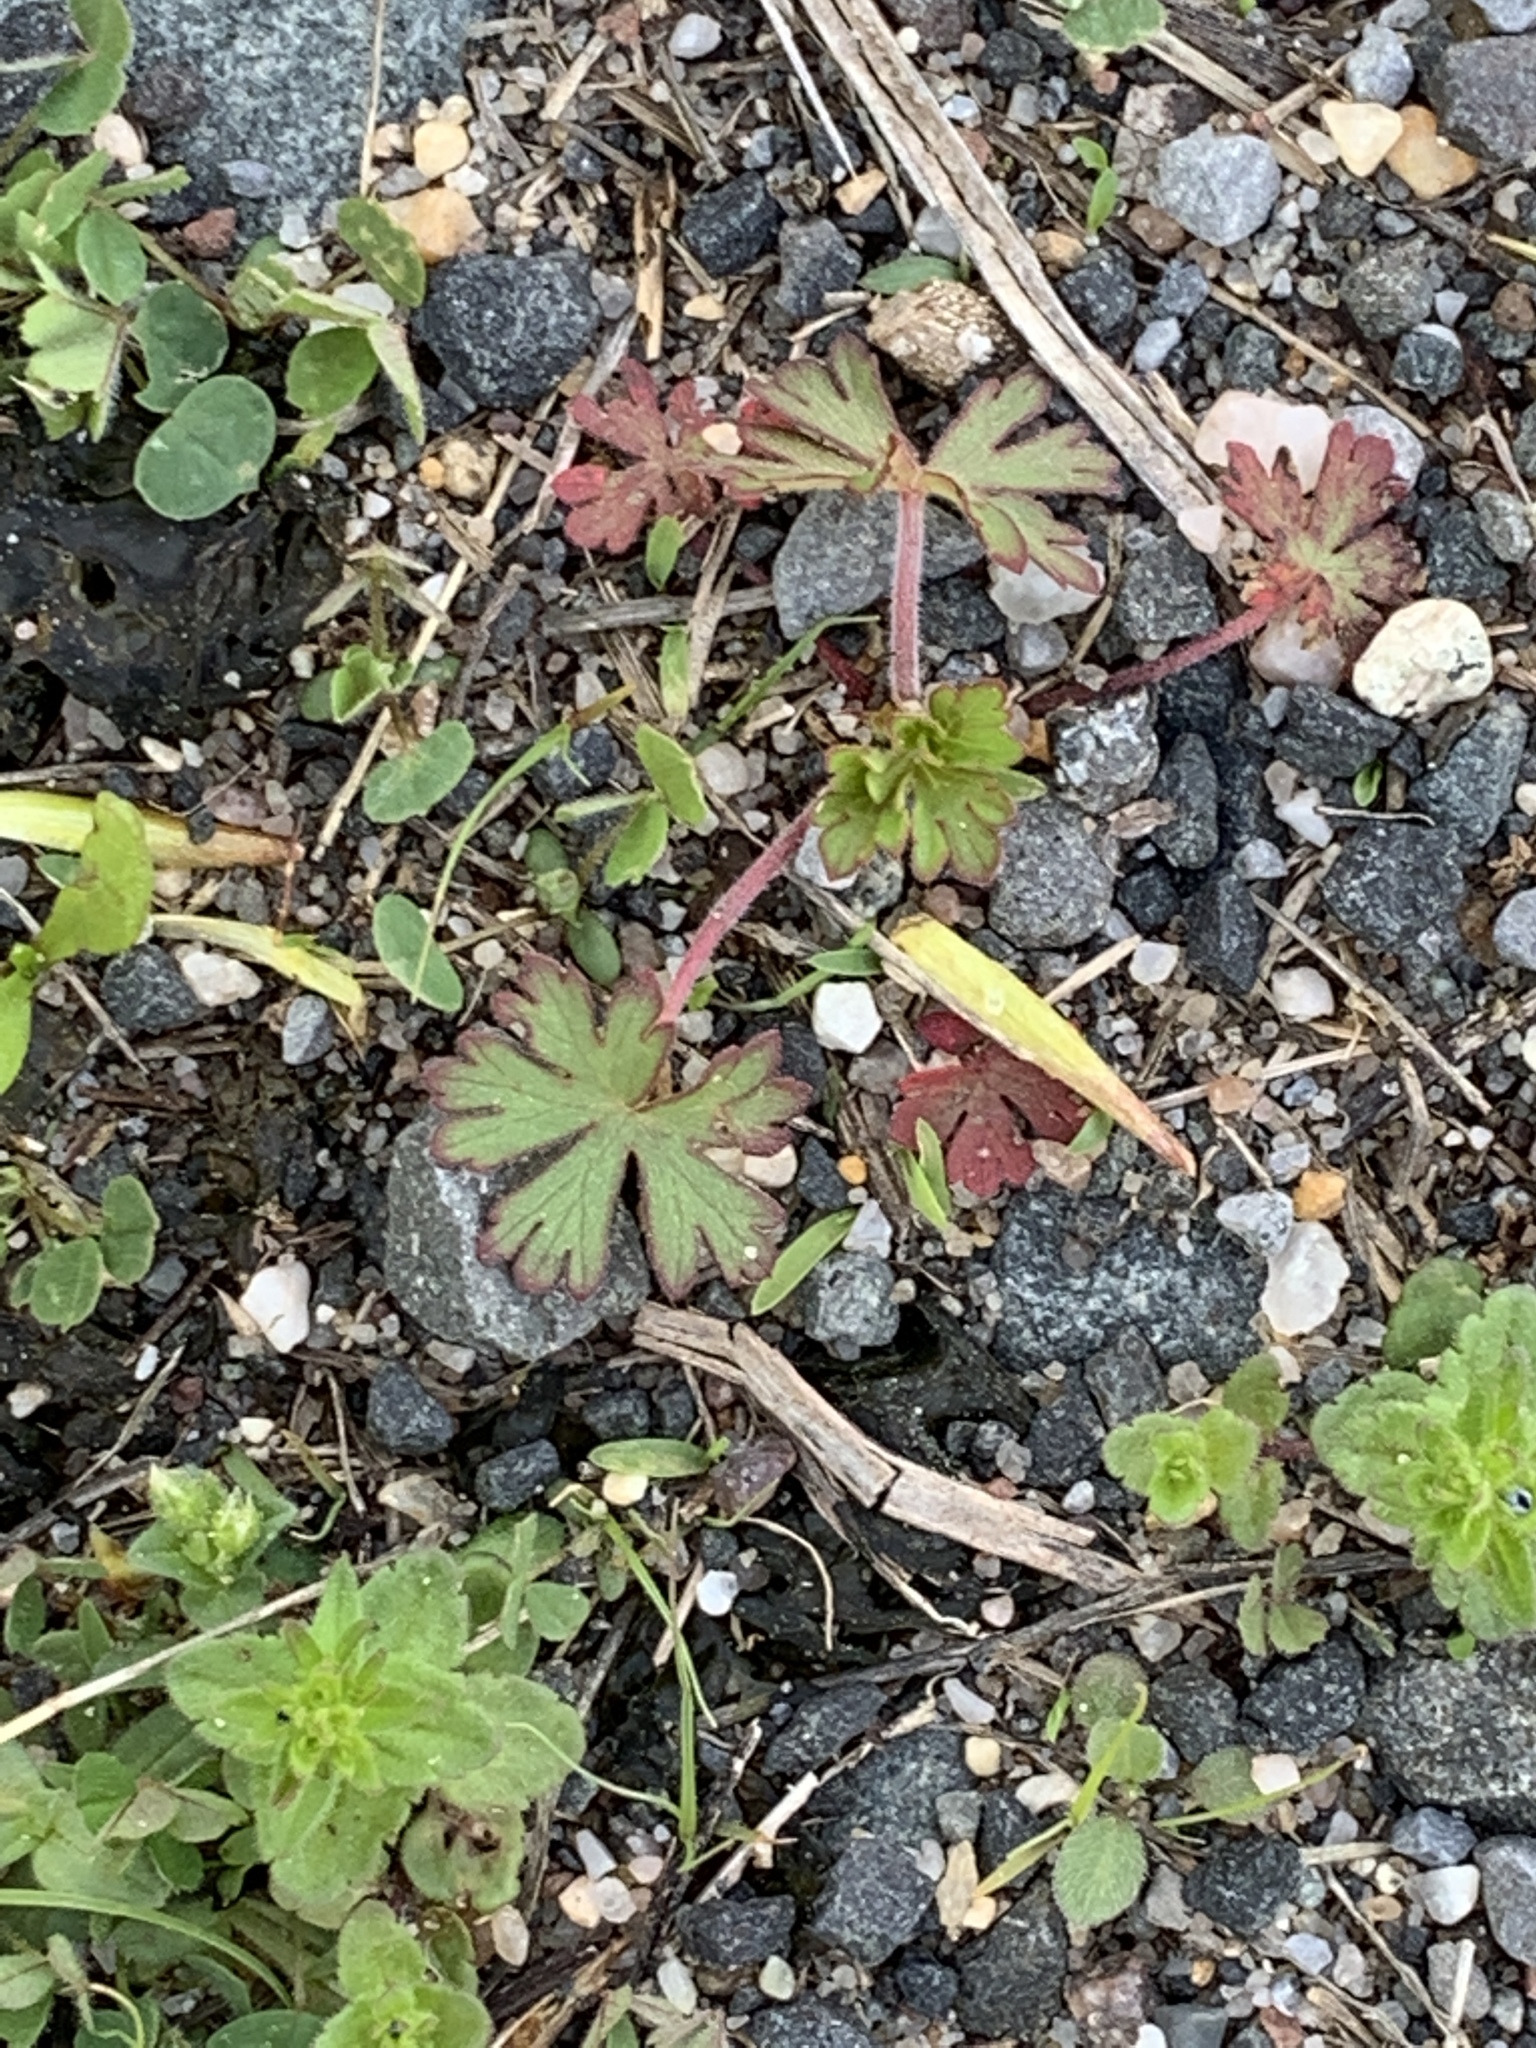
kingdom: Plantae
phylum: Tracheophyta
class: Magnoliopsida
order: Geraniales
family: Geraniaceae
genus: Geranium
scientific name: Geranium carolinianum
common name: Carolina crane's-bill
